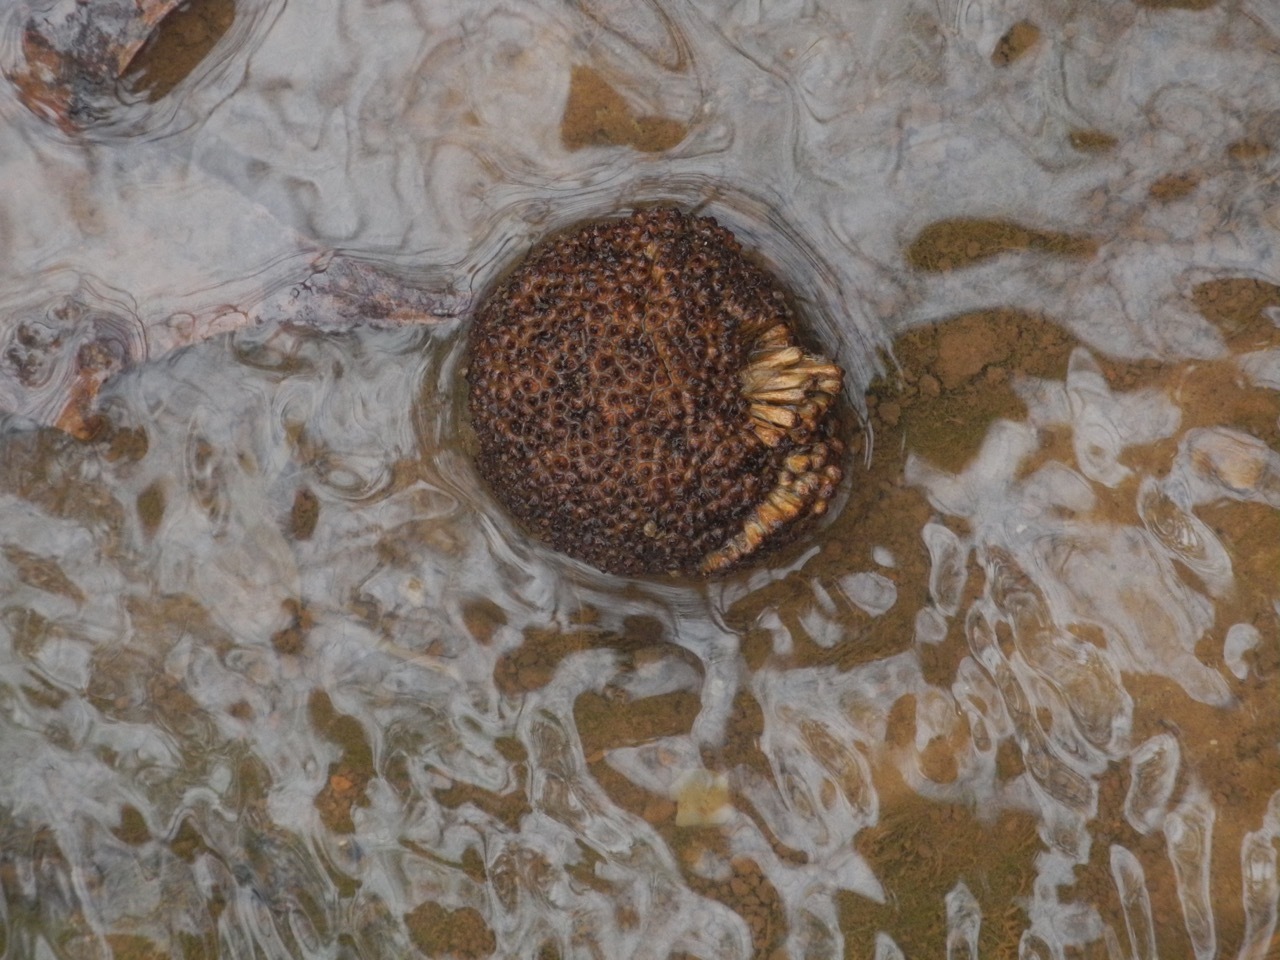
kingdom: Plantae
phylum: Tracheophyta
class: Magnoliopsida
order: Proteales
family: Platanaceae
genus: Platanus
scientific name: Platanus occidentalis
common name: American sycamore
